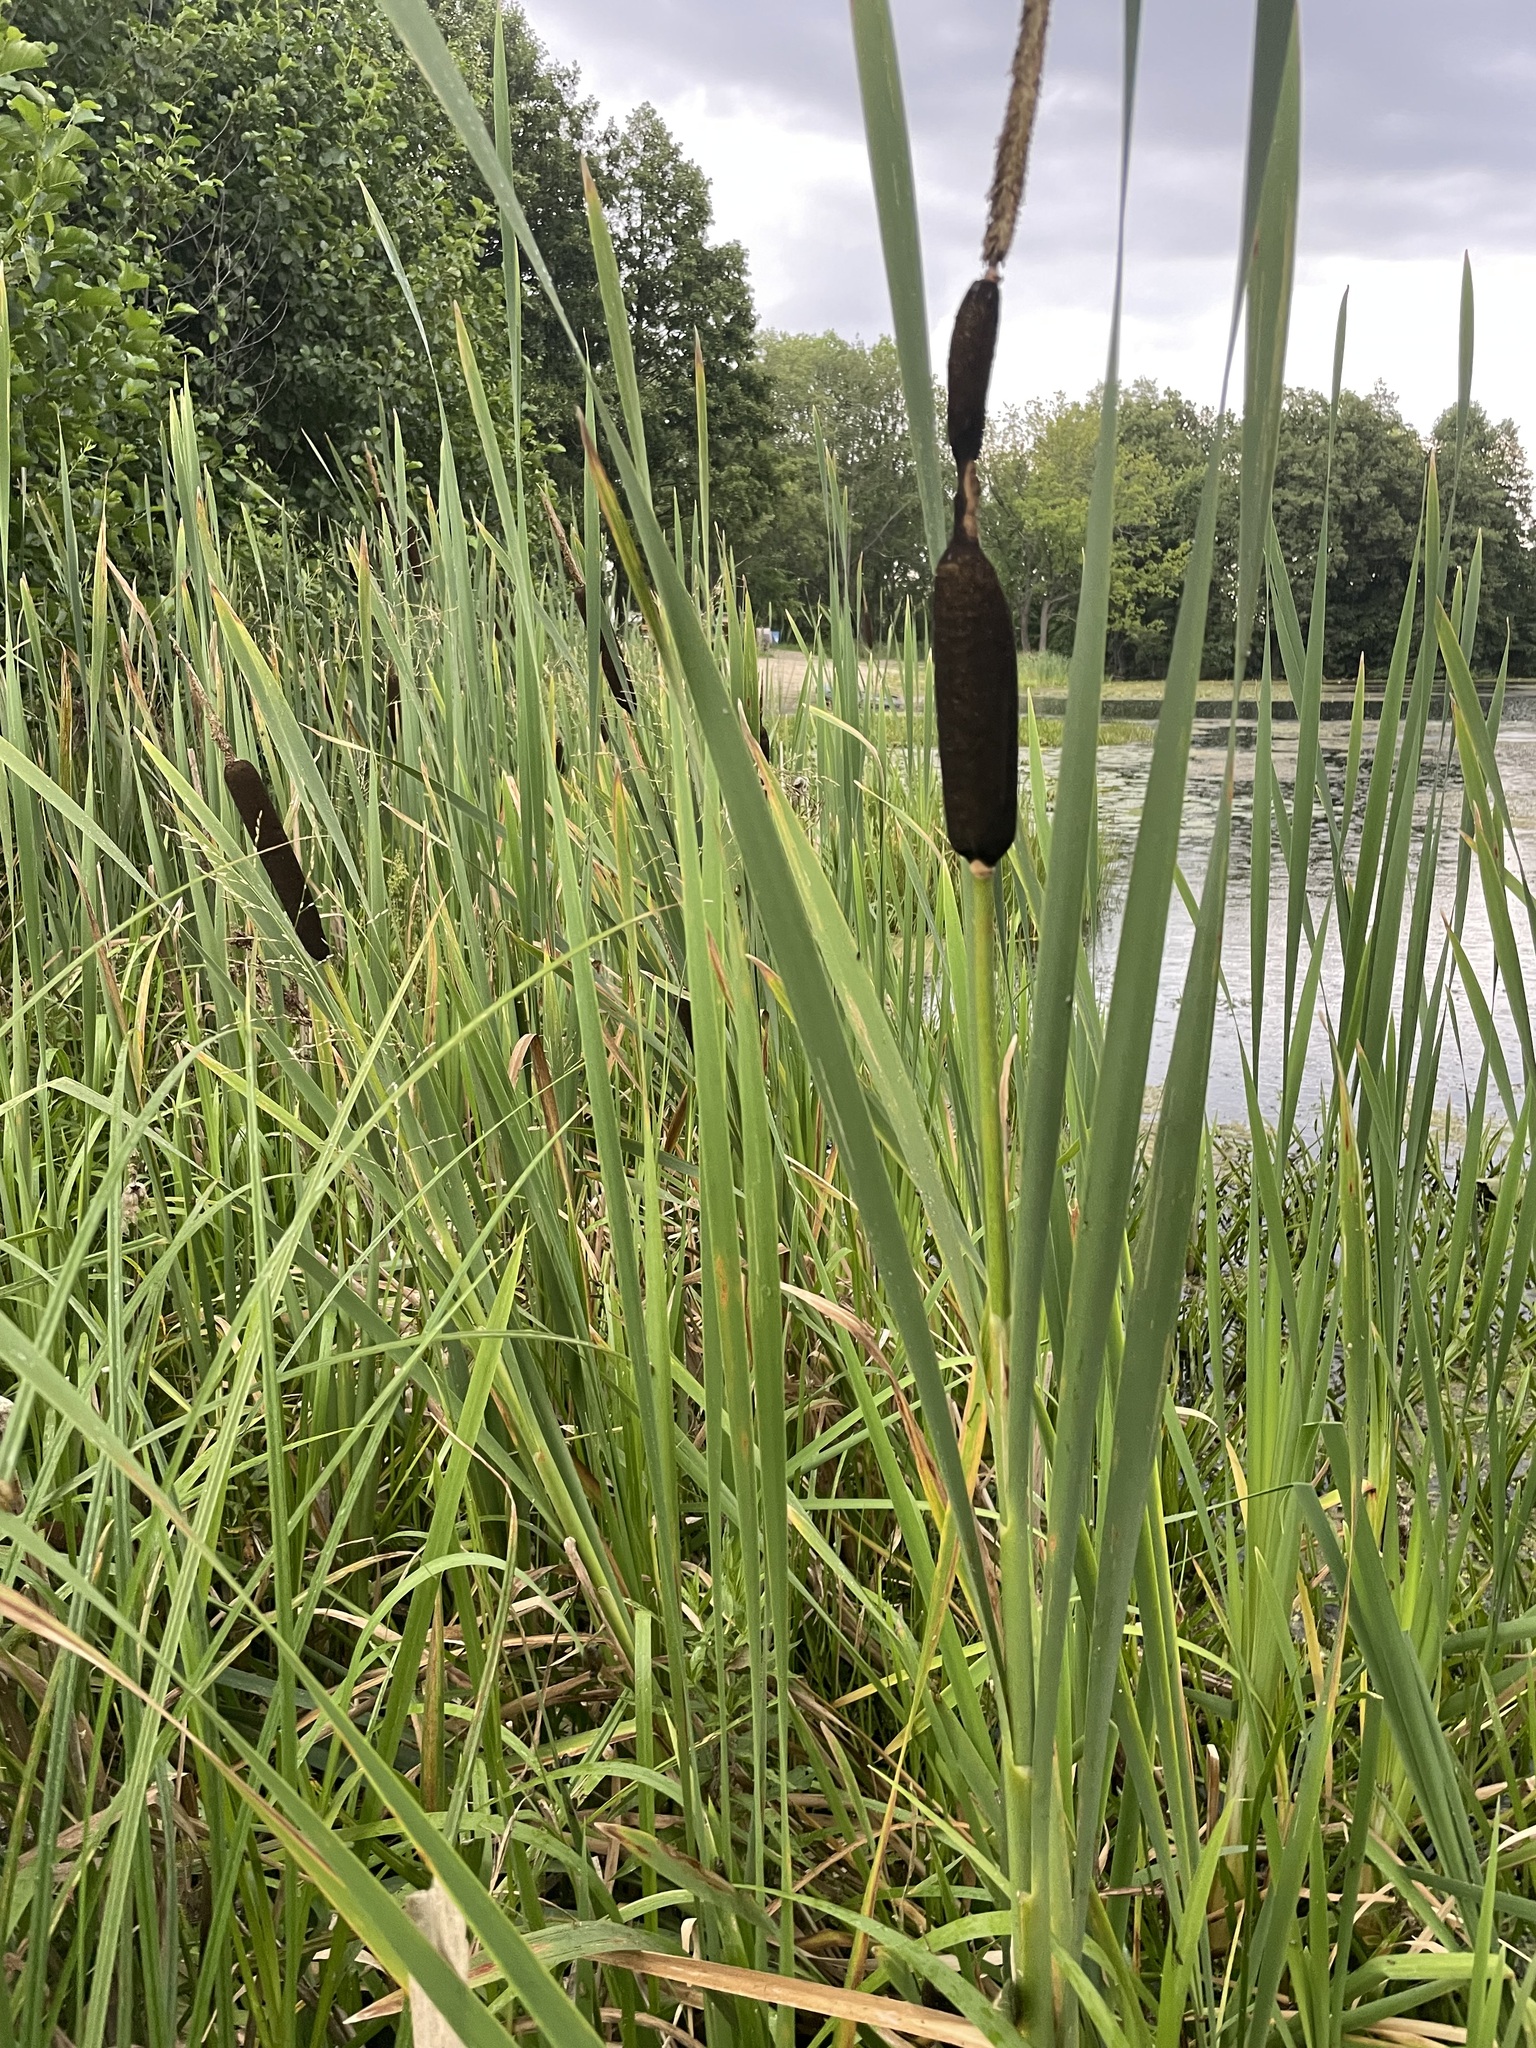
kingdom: Plantae
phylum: Tracheophyta
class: Liliopsida
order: Poales
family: Typhaceae
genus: Typha
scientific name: Typha latifolia
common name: Broadleaf cattail
